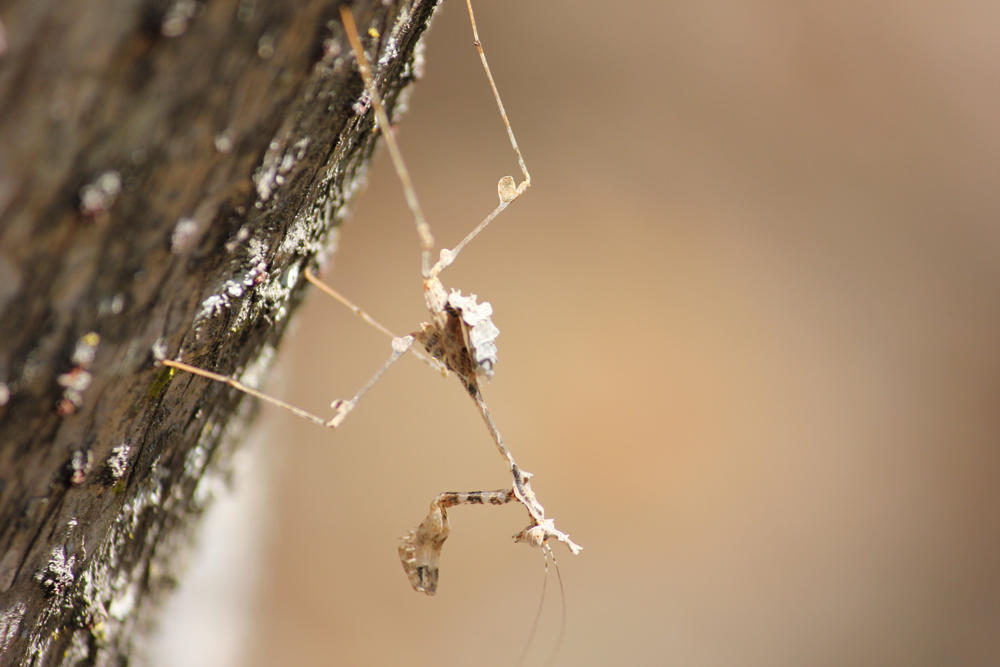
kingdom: Animalia
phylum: Arthropoda
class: Insecta
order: Mantodea
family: Hymenopodidae
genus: Sibylla
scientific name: Sibylla pretiosa
